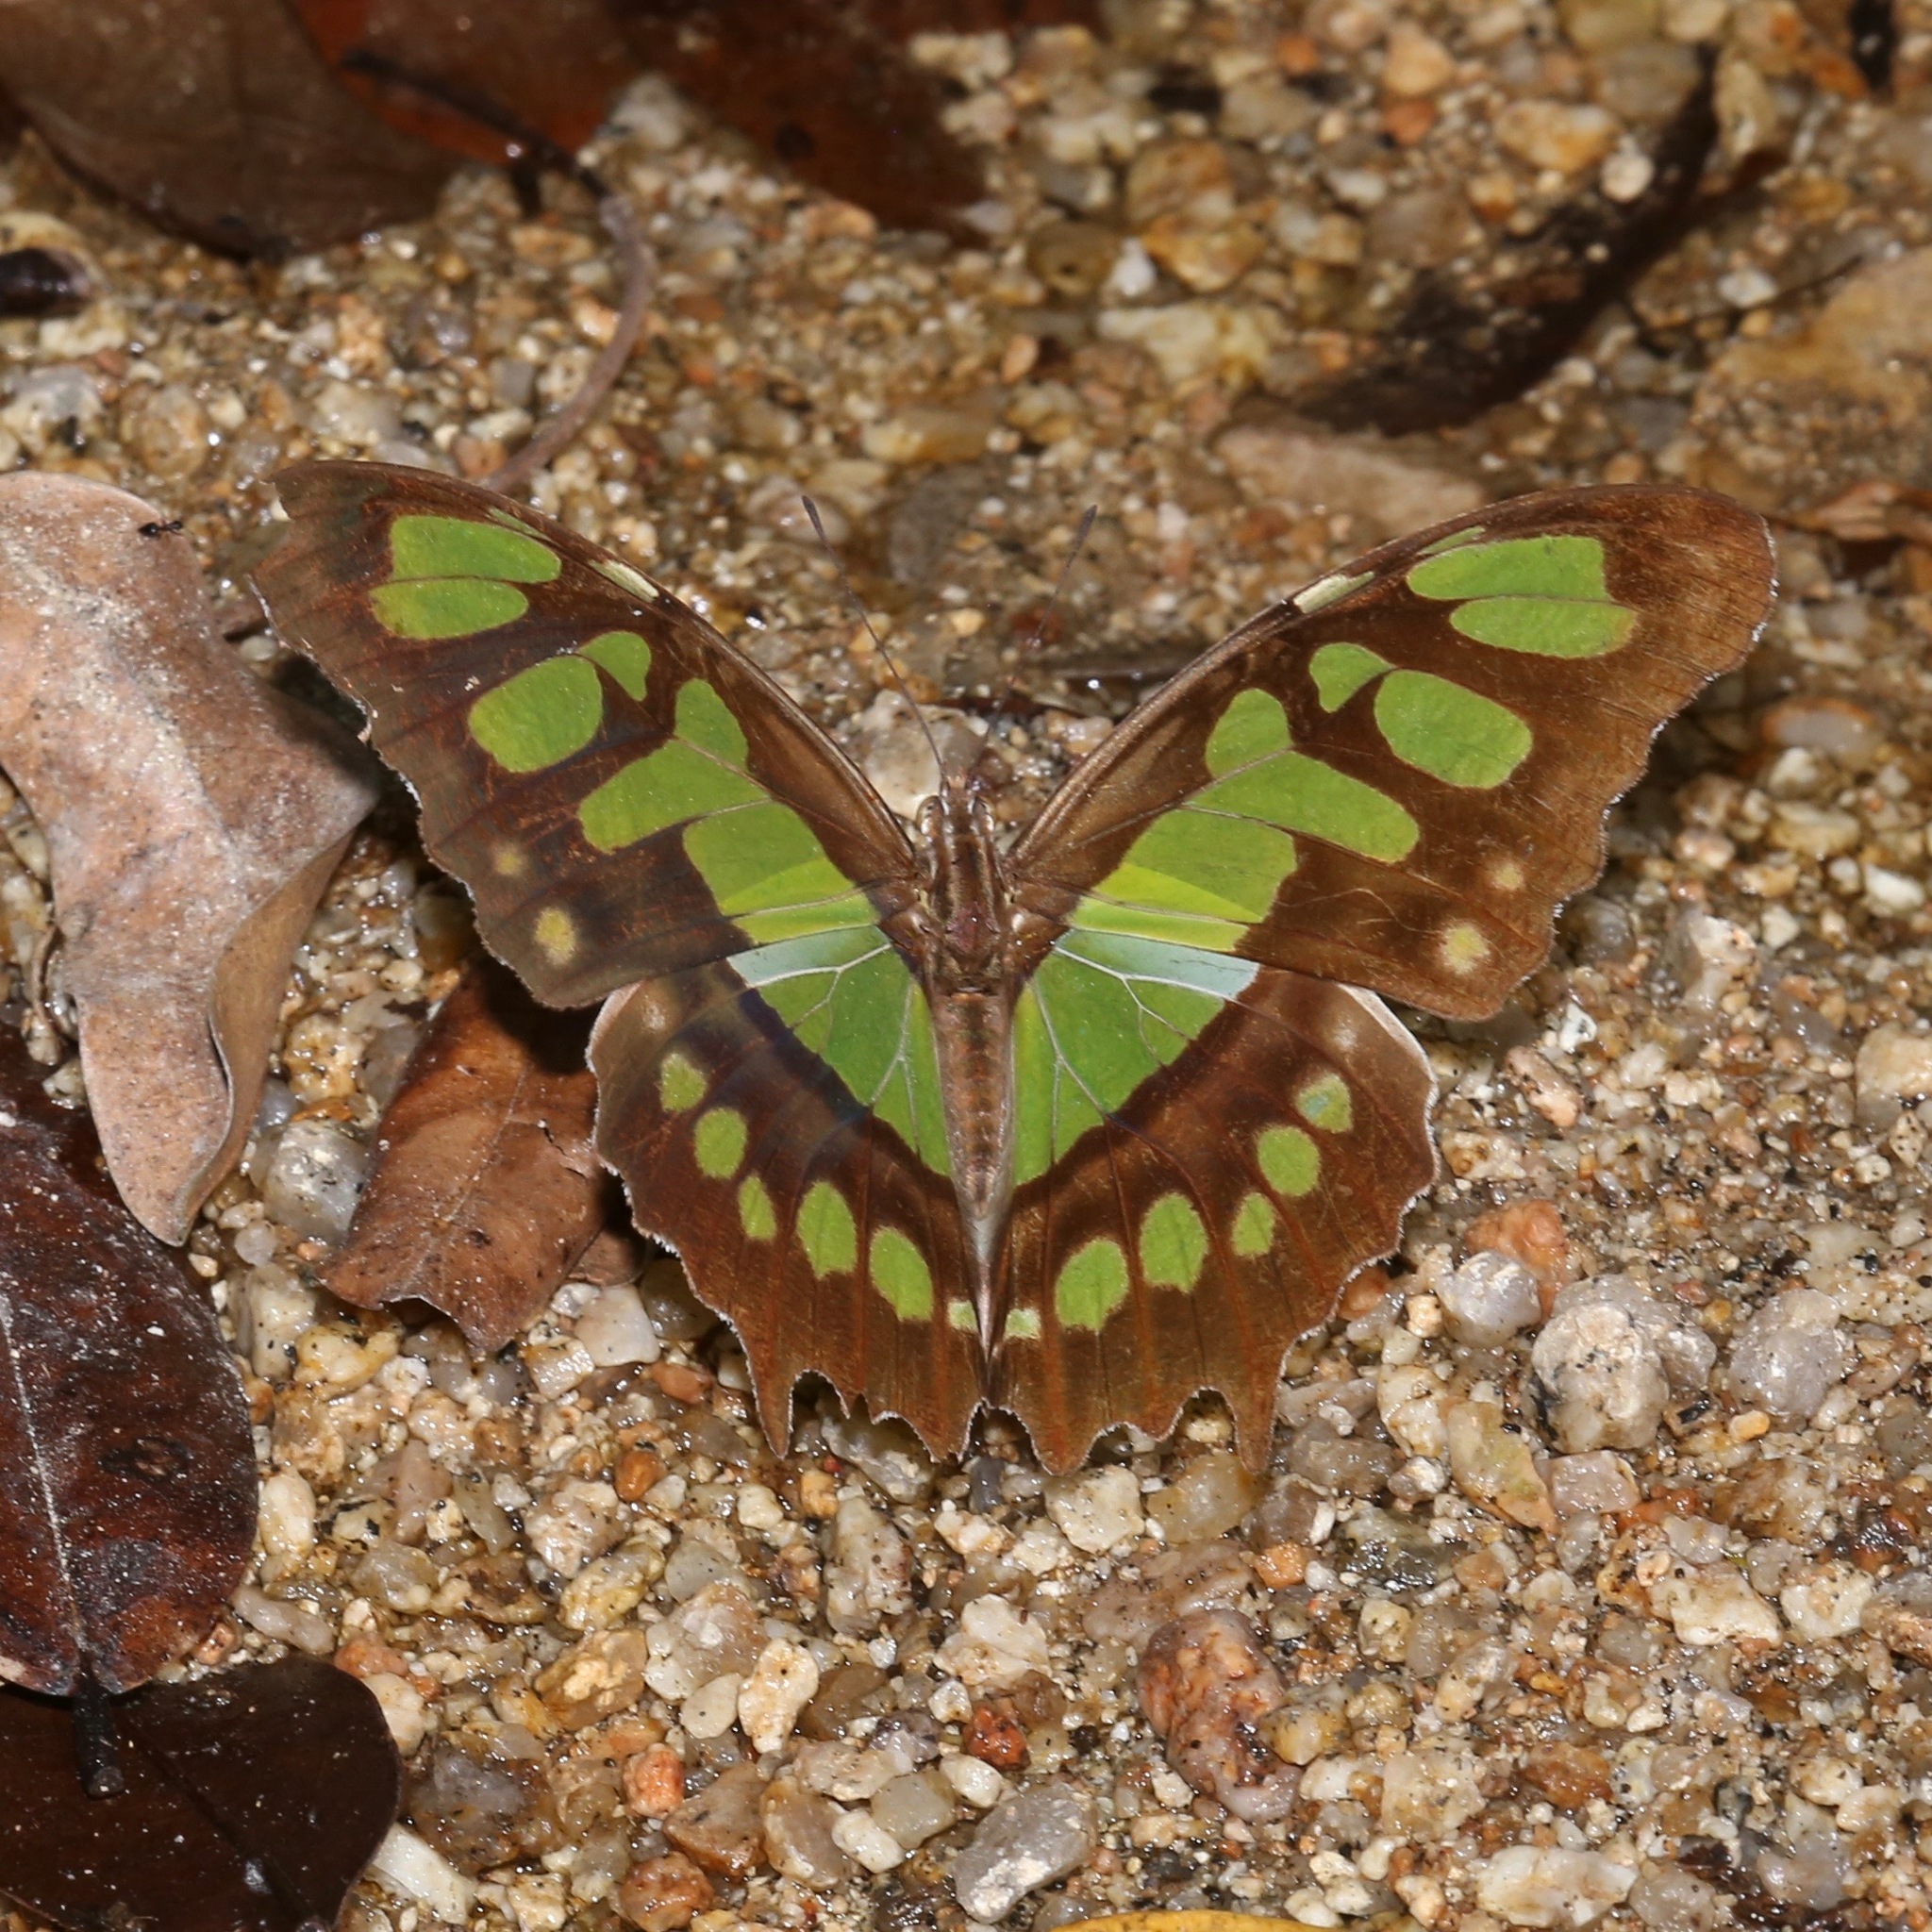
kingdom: Animalia
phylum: Arthropoda
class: Insecta
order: Lepidoptera
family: Nymphalidae
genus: Siproeta
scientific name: Siproeta stelenes
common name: Malachite
